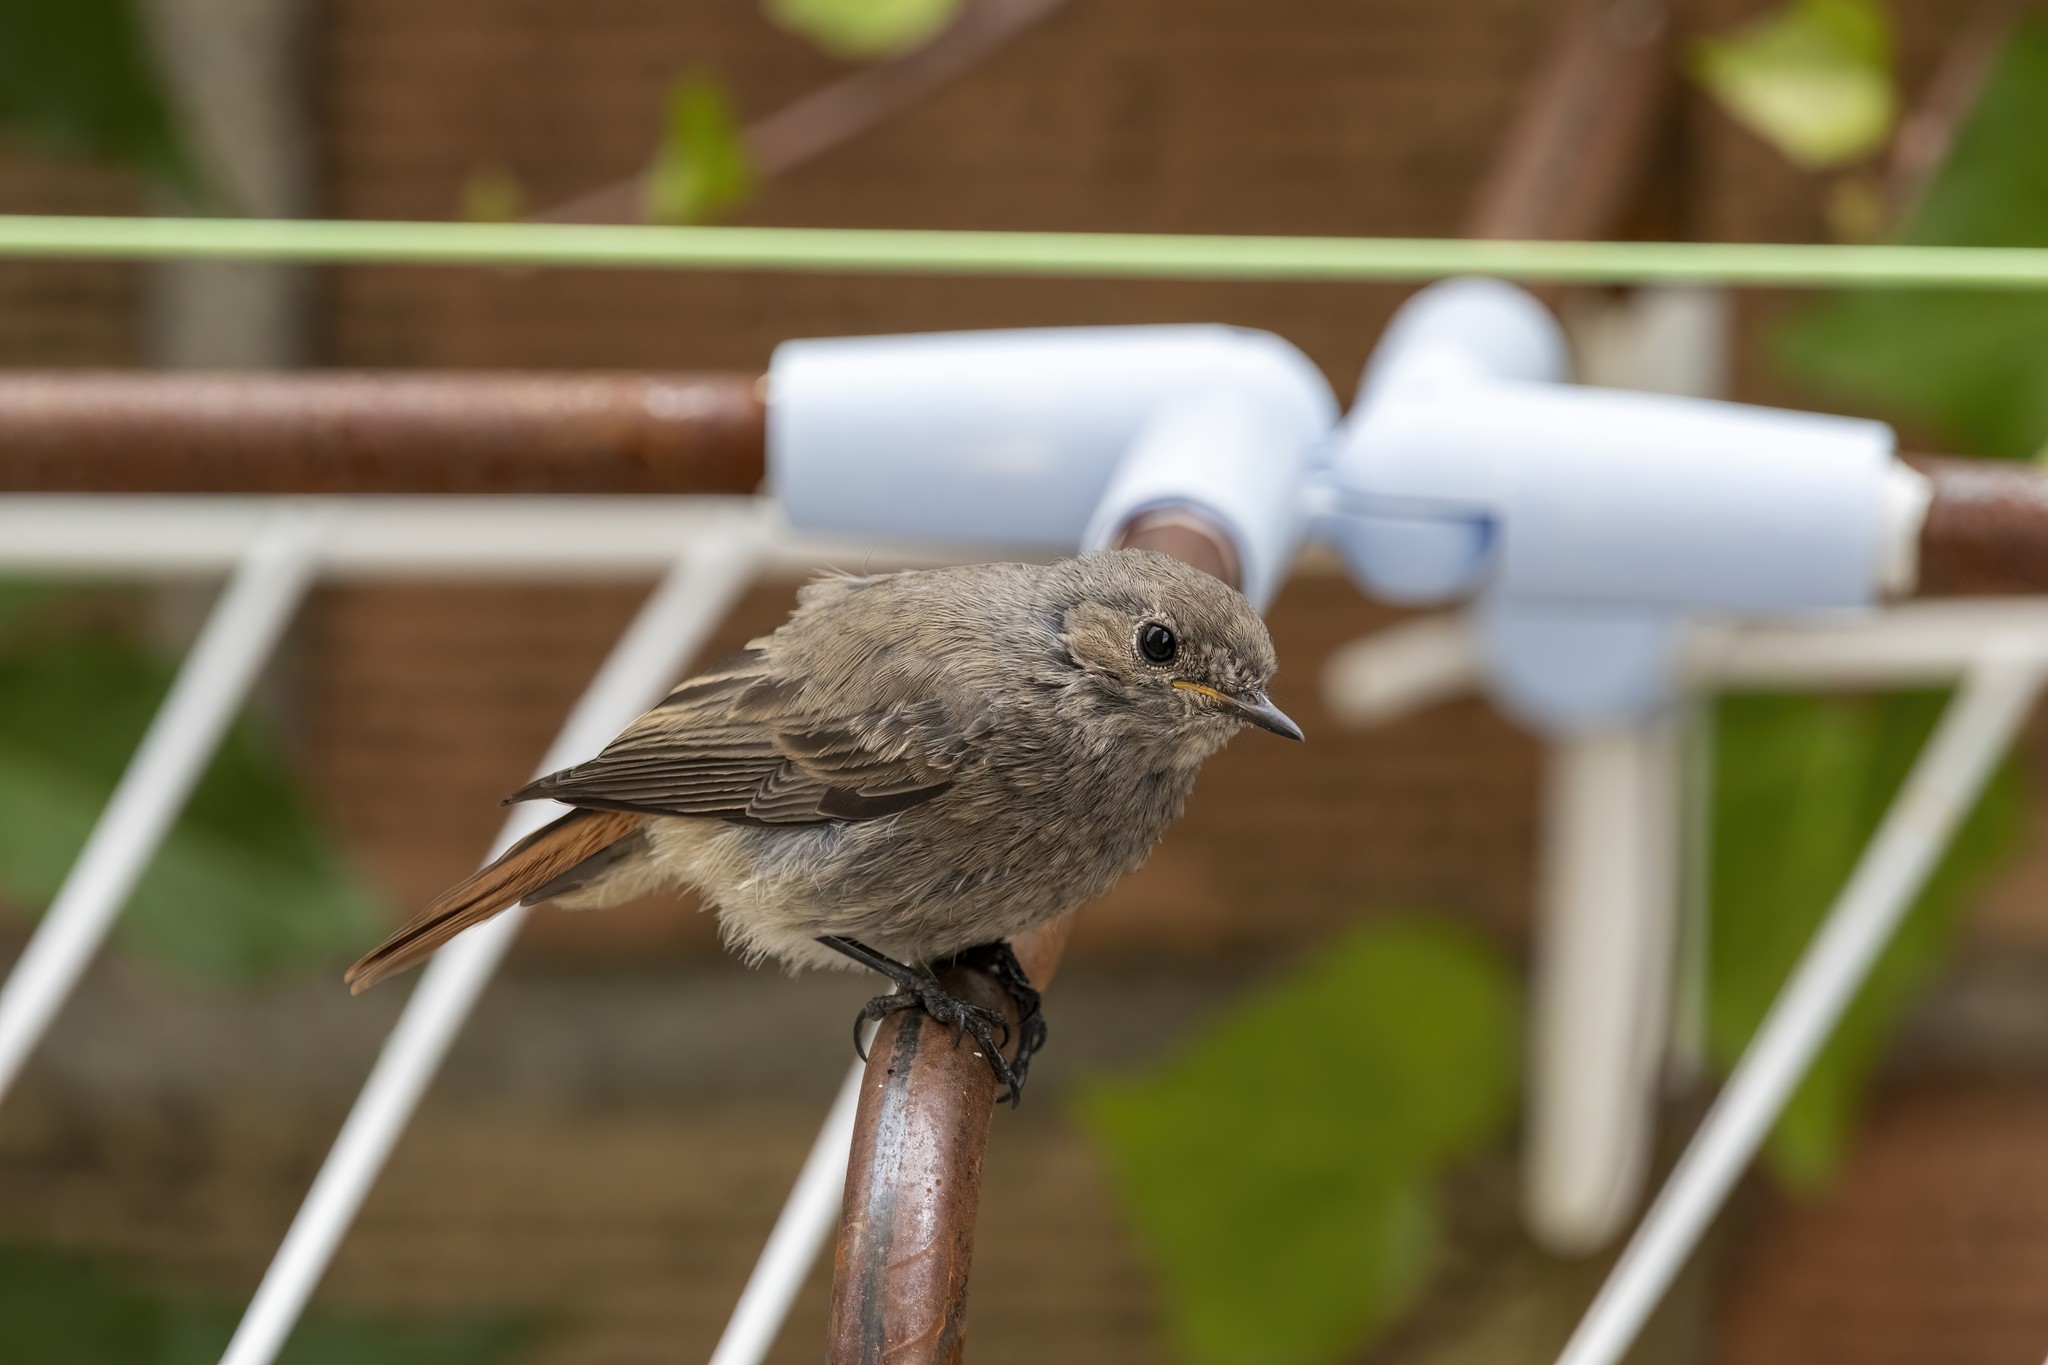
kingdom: Animalia
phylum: Chordata
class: Aves
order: Passeriformes
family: Muscicapidae
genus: Phoenicurus
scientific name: Phoenicurus ochruros
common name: Black redstart
